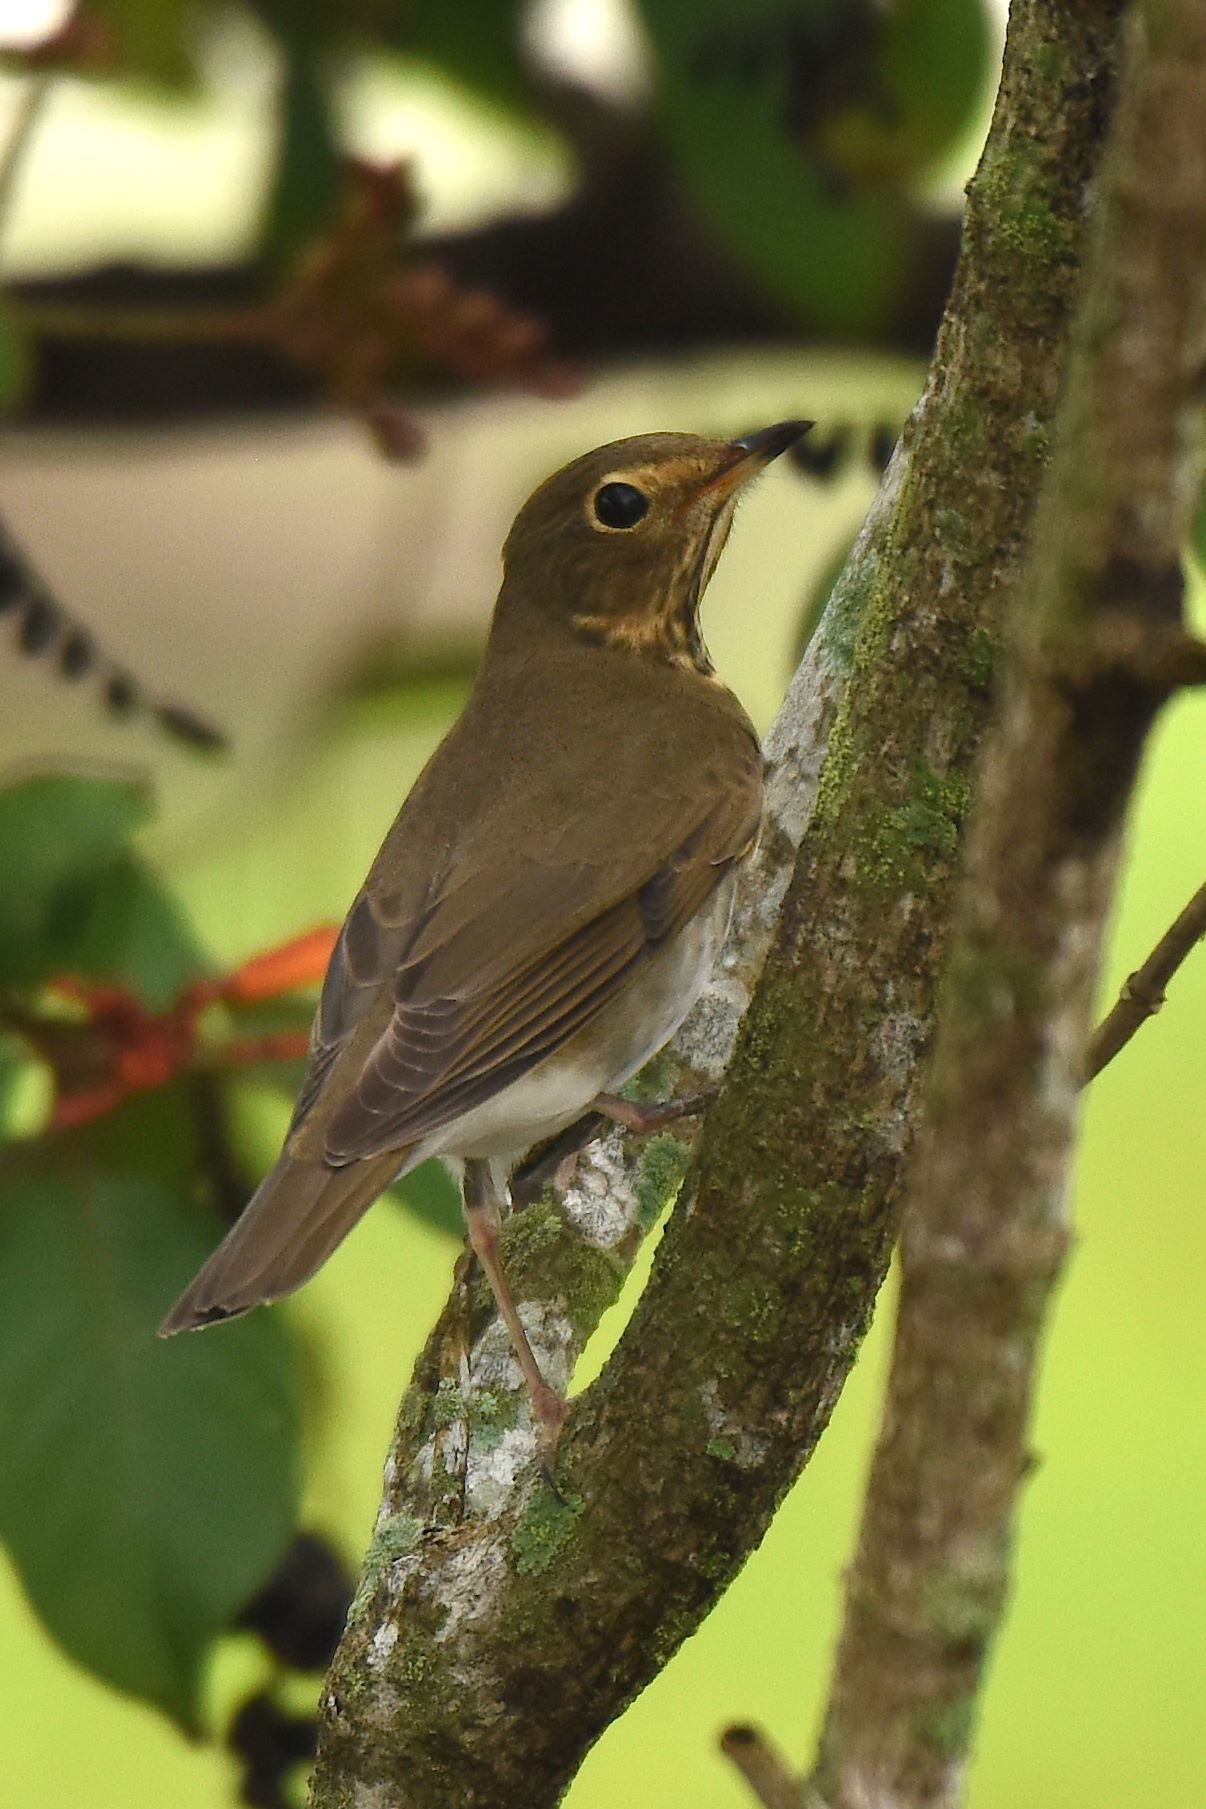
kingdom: Animalia
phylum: Chordata
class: Aves
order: Passeriformes
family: Turdidae
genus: Catharus
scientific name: Catharus ustulatus
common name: Swainson's thrush
